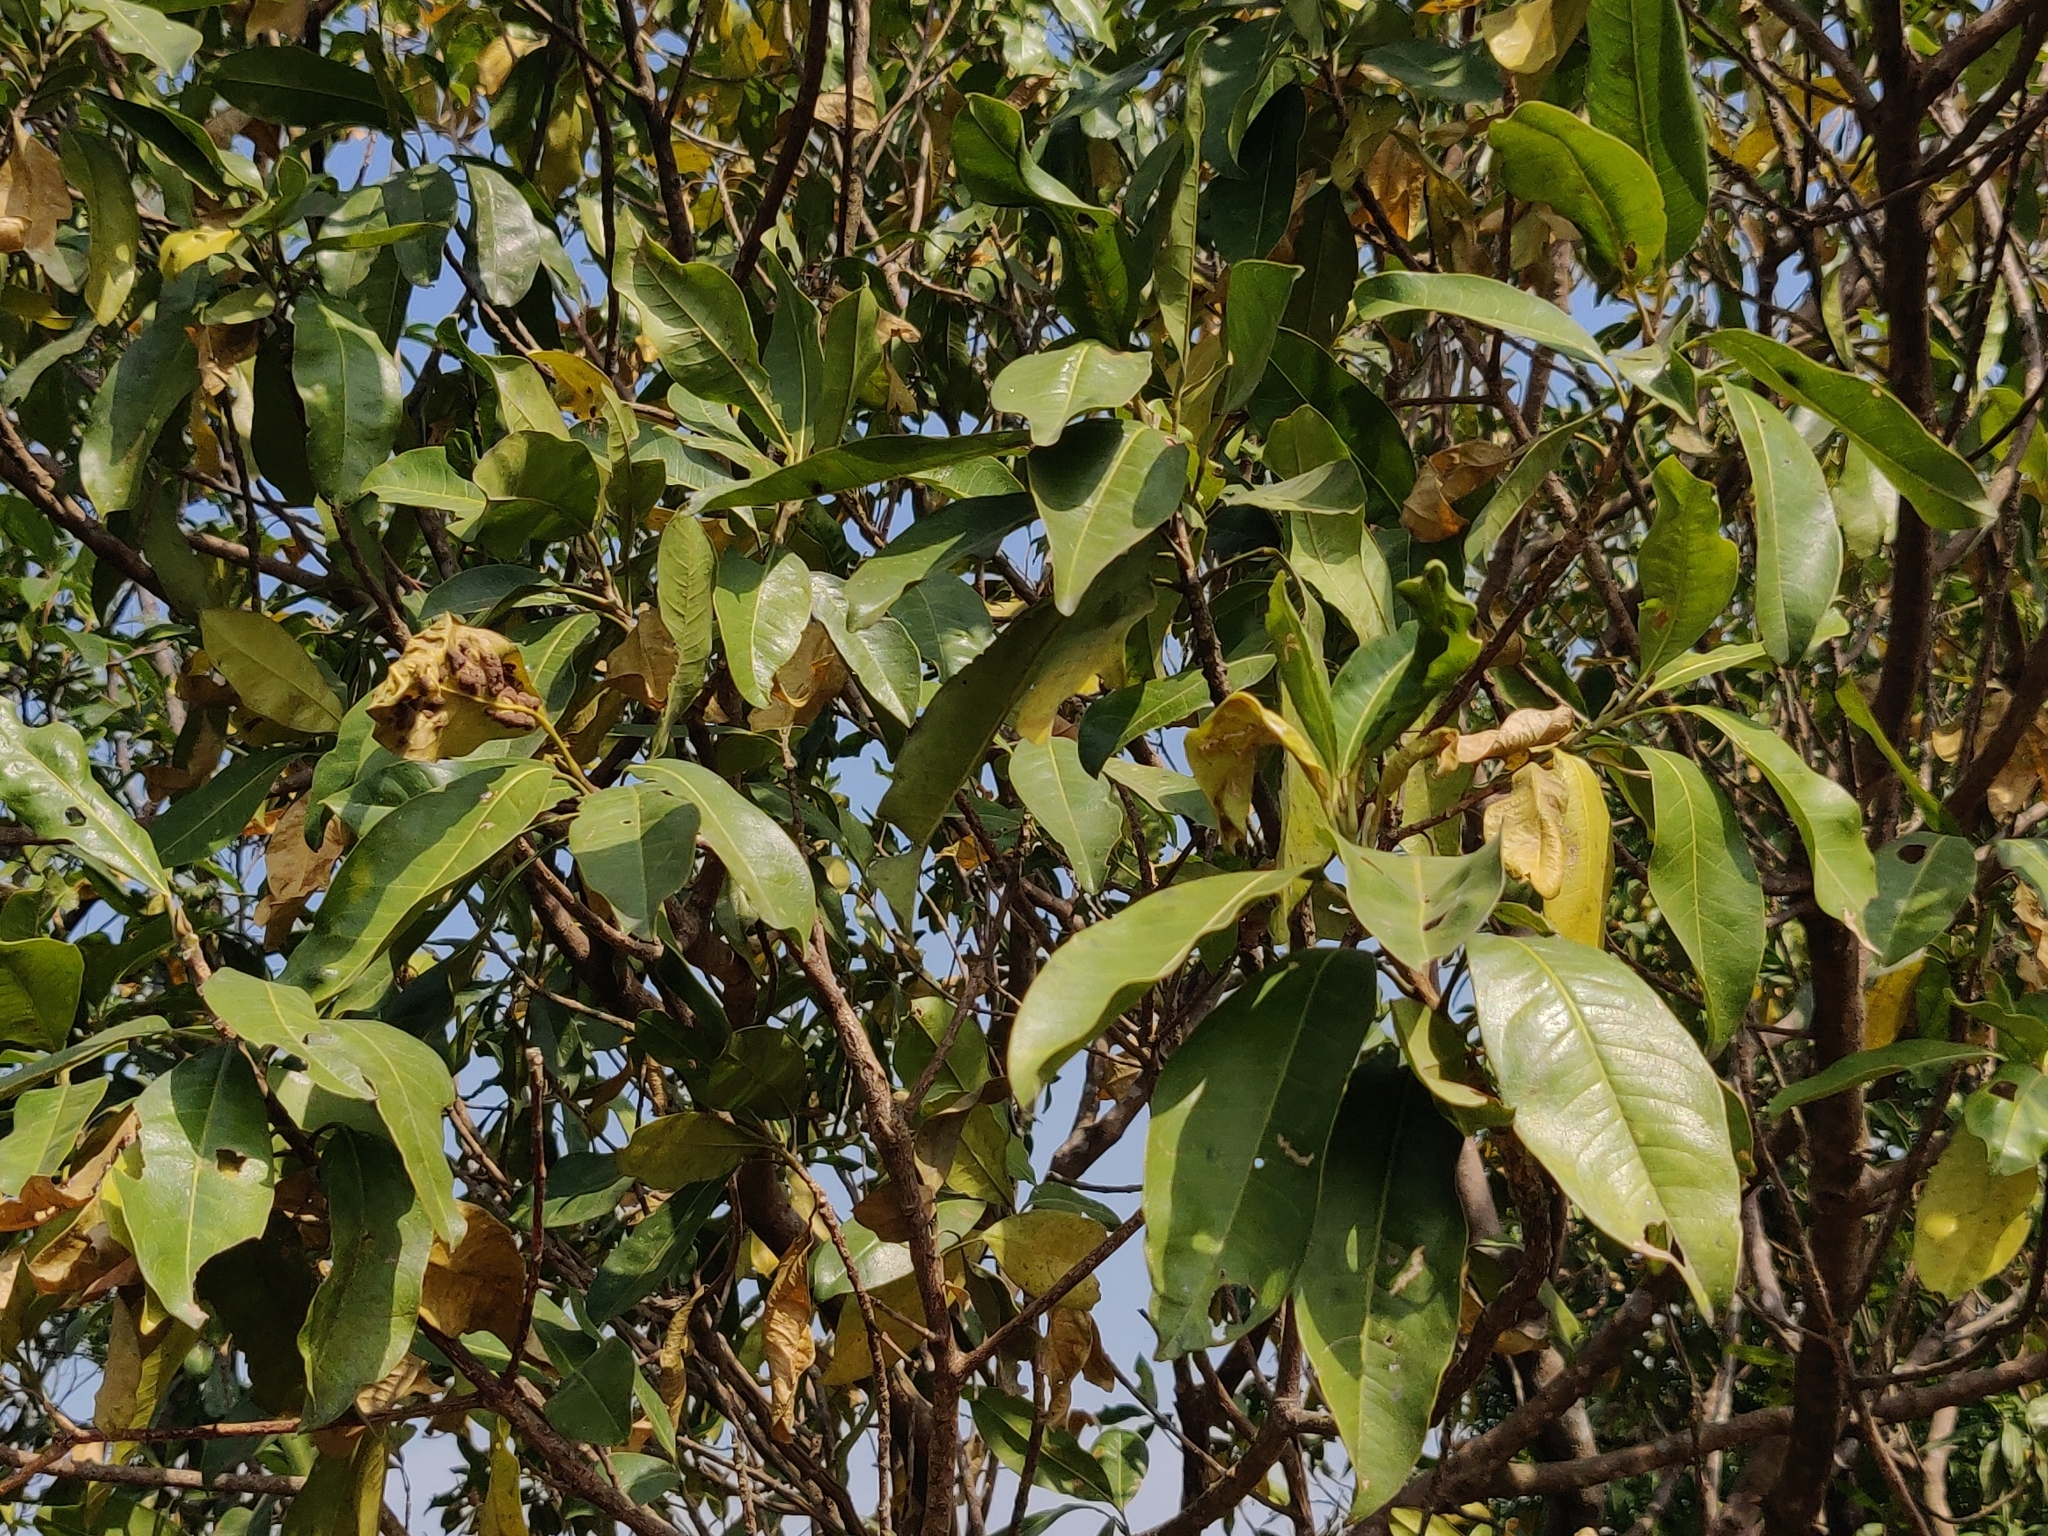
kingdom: Plantae
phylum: Tracheophyta
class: Magnoliopsida
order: Sapindales
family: Rutaceae
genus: Acronychia
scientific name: Acronychia pedunculata
